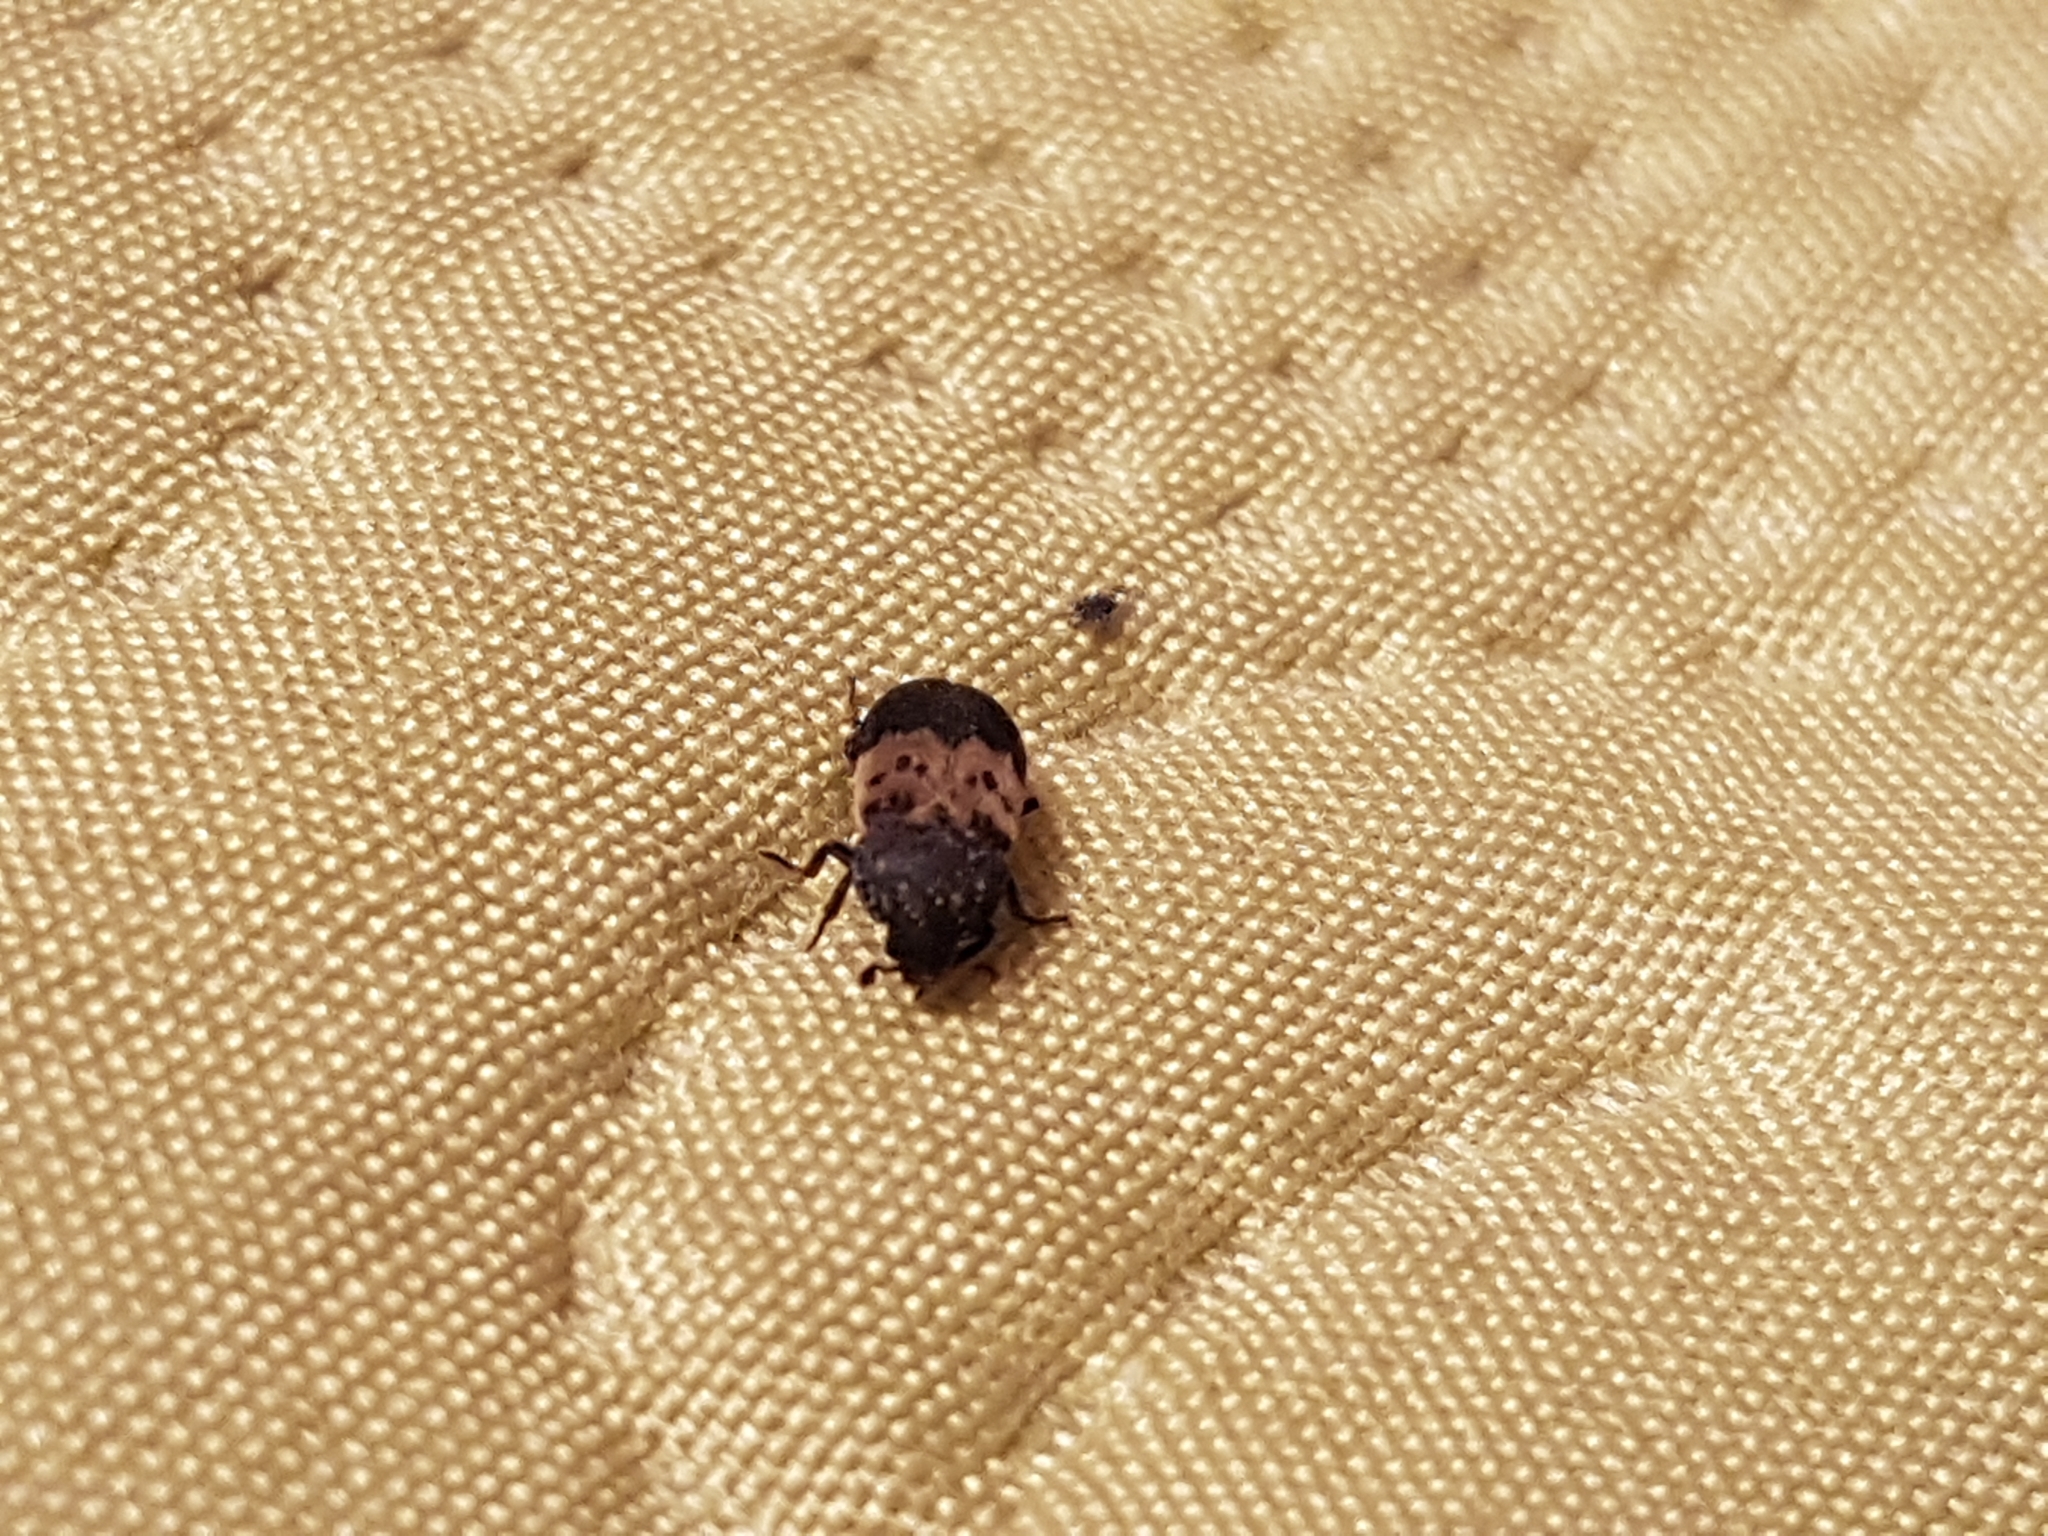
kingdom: Animalia
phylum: Arthropoda
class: Insecta
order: Coleoptera
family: Dermestidae
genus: Dermestes
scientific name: Dermestes lardarius
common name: Larder beetle
